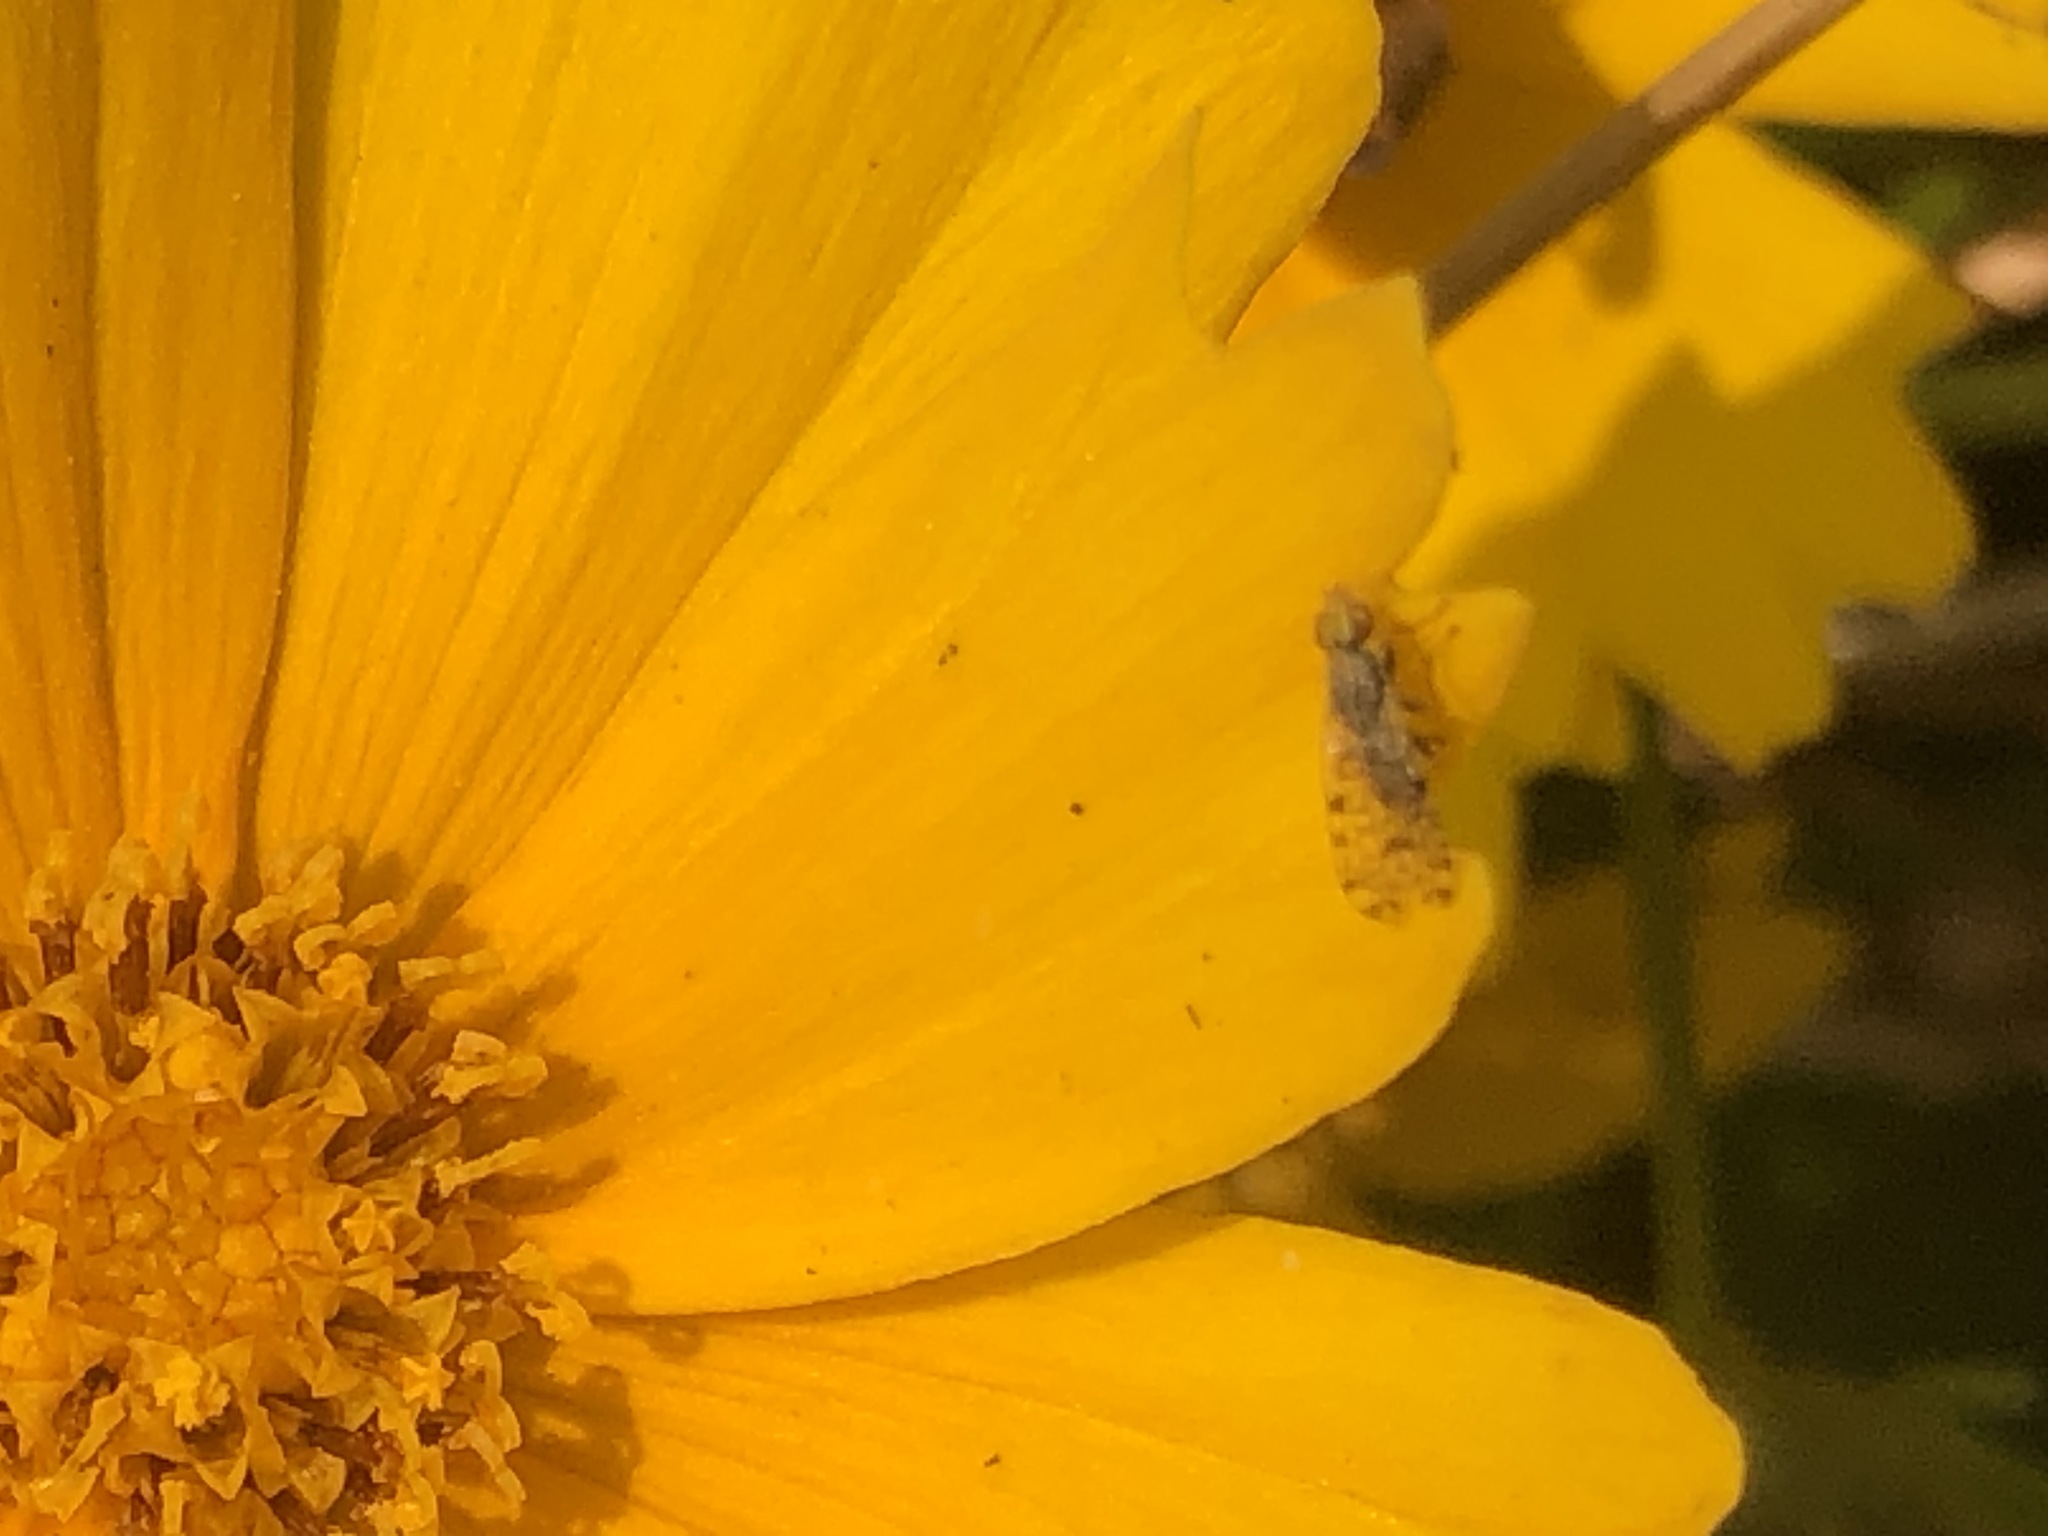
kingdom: Animalia
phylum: Arthropoda
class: Insecta
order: Diptera
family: Tephritidae
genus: Dioxyna
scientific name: Dioxyna picciola
